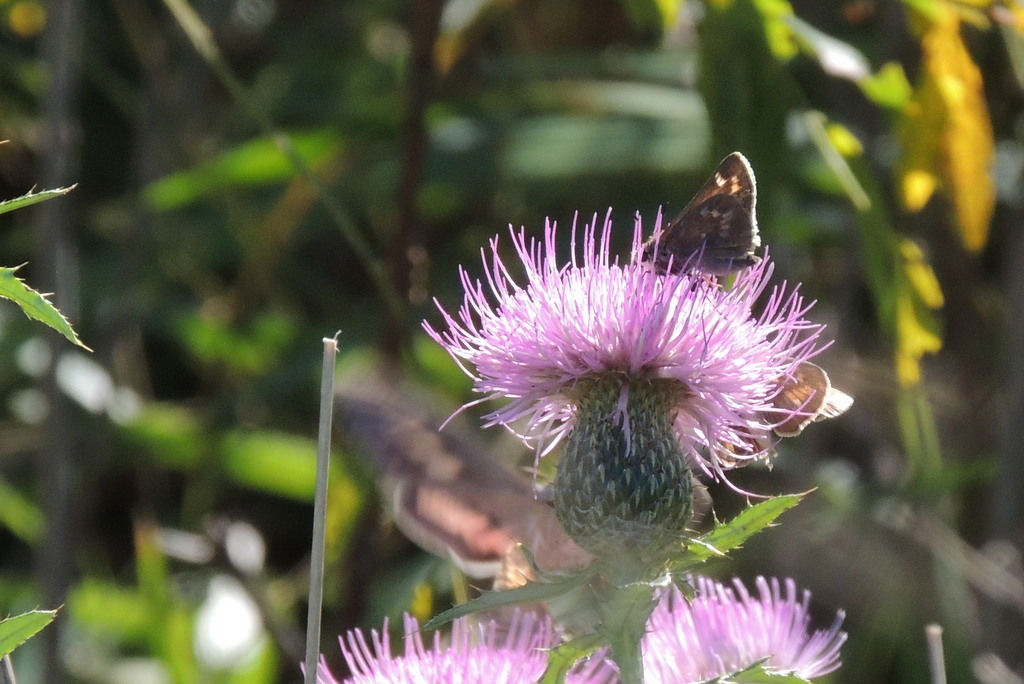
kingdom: Animalia
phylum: Arthropoda
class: Insecta
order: Lepidoptera
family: Hesperiidae
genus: Atalopedes
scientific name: Atalopedes
